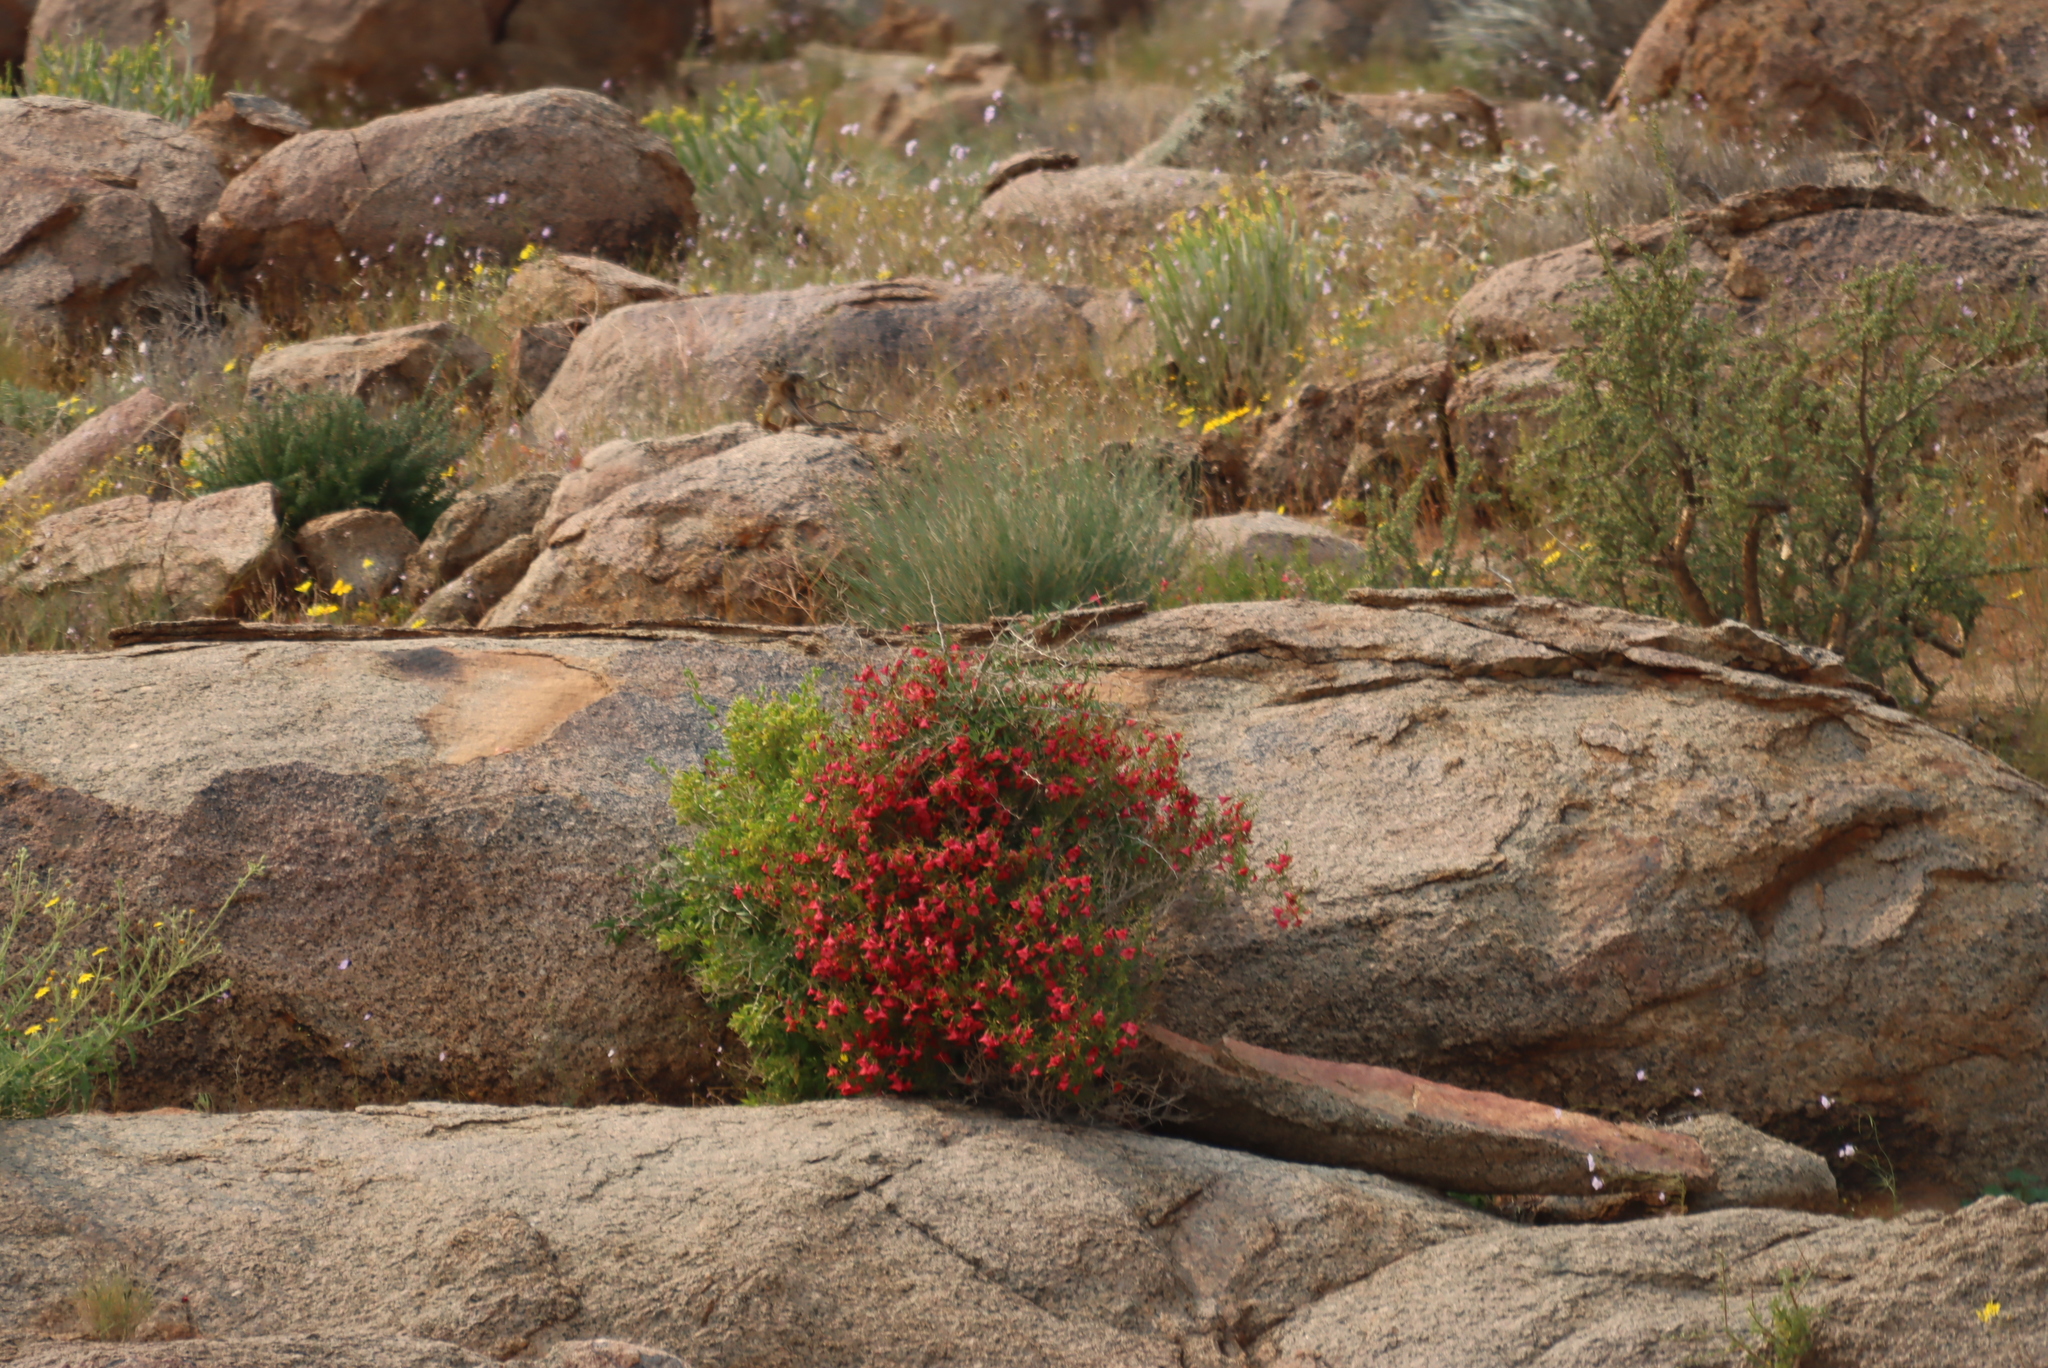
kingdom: Plantae
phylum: Tracheophyta
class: Magnoliopsida
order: Malvales
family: Malvaceae
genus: Hermannia
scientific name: Hermannia stricta
